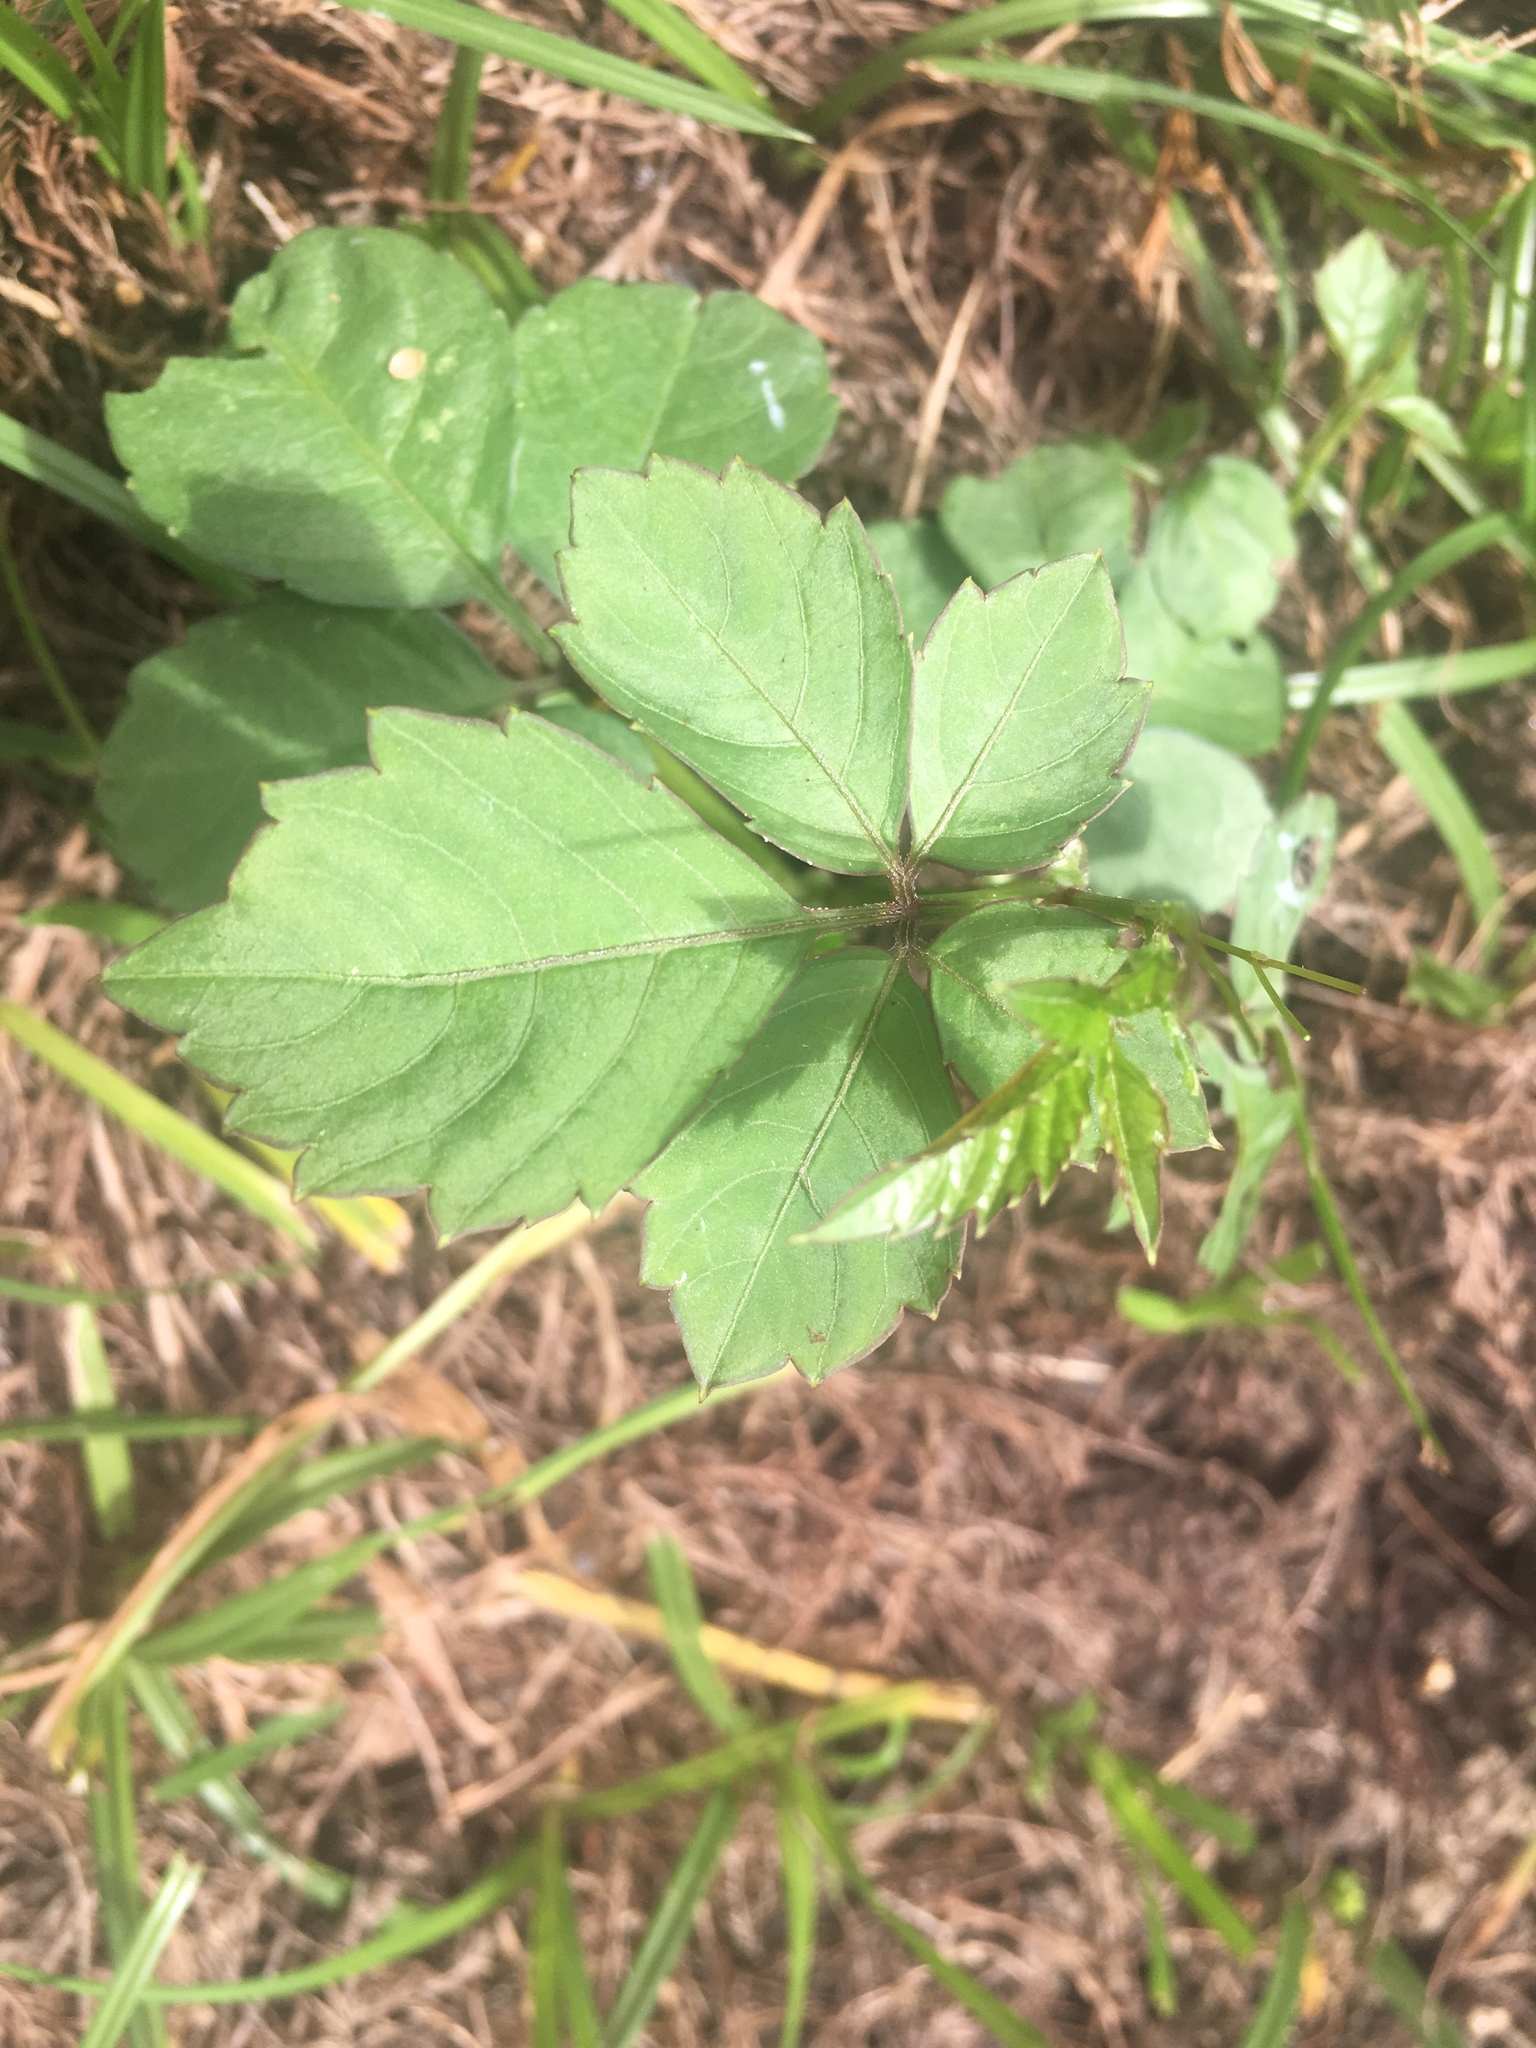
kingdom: Plantae
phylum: Tracheophyta
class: Magnoliopsida
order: Vitales
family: Vitaceae
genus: Causonis
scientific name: Causonis japonica
